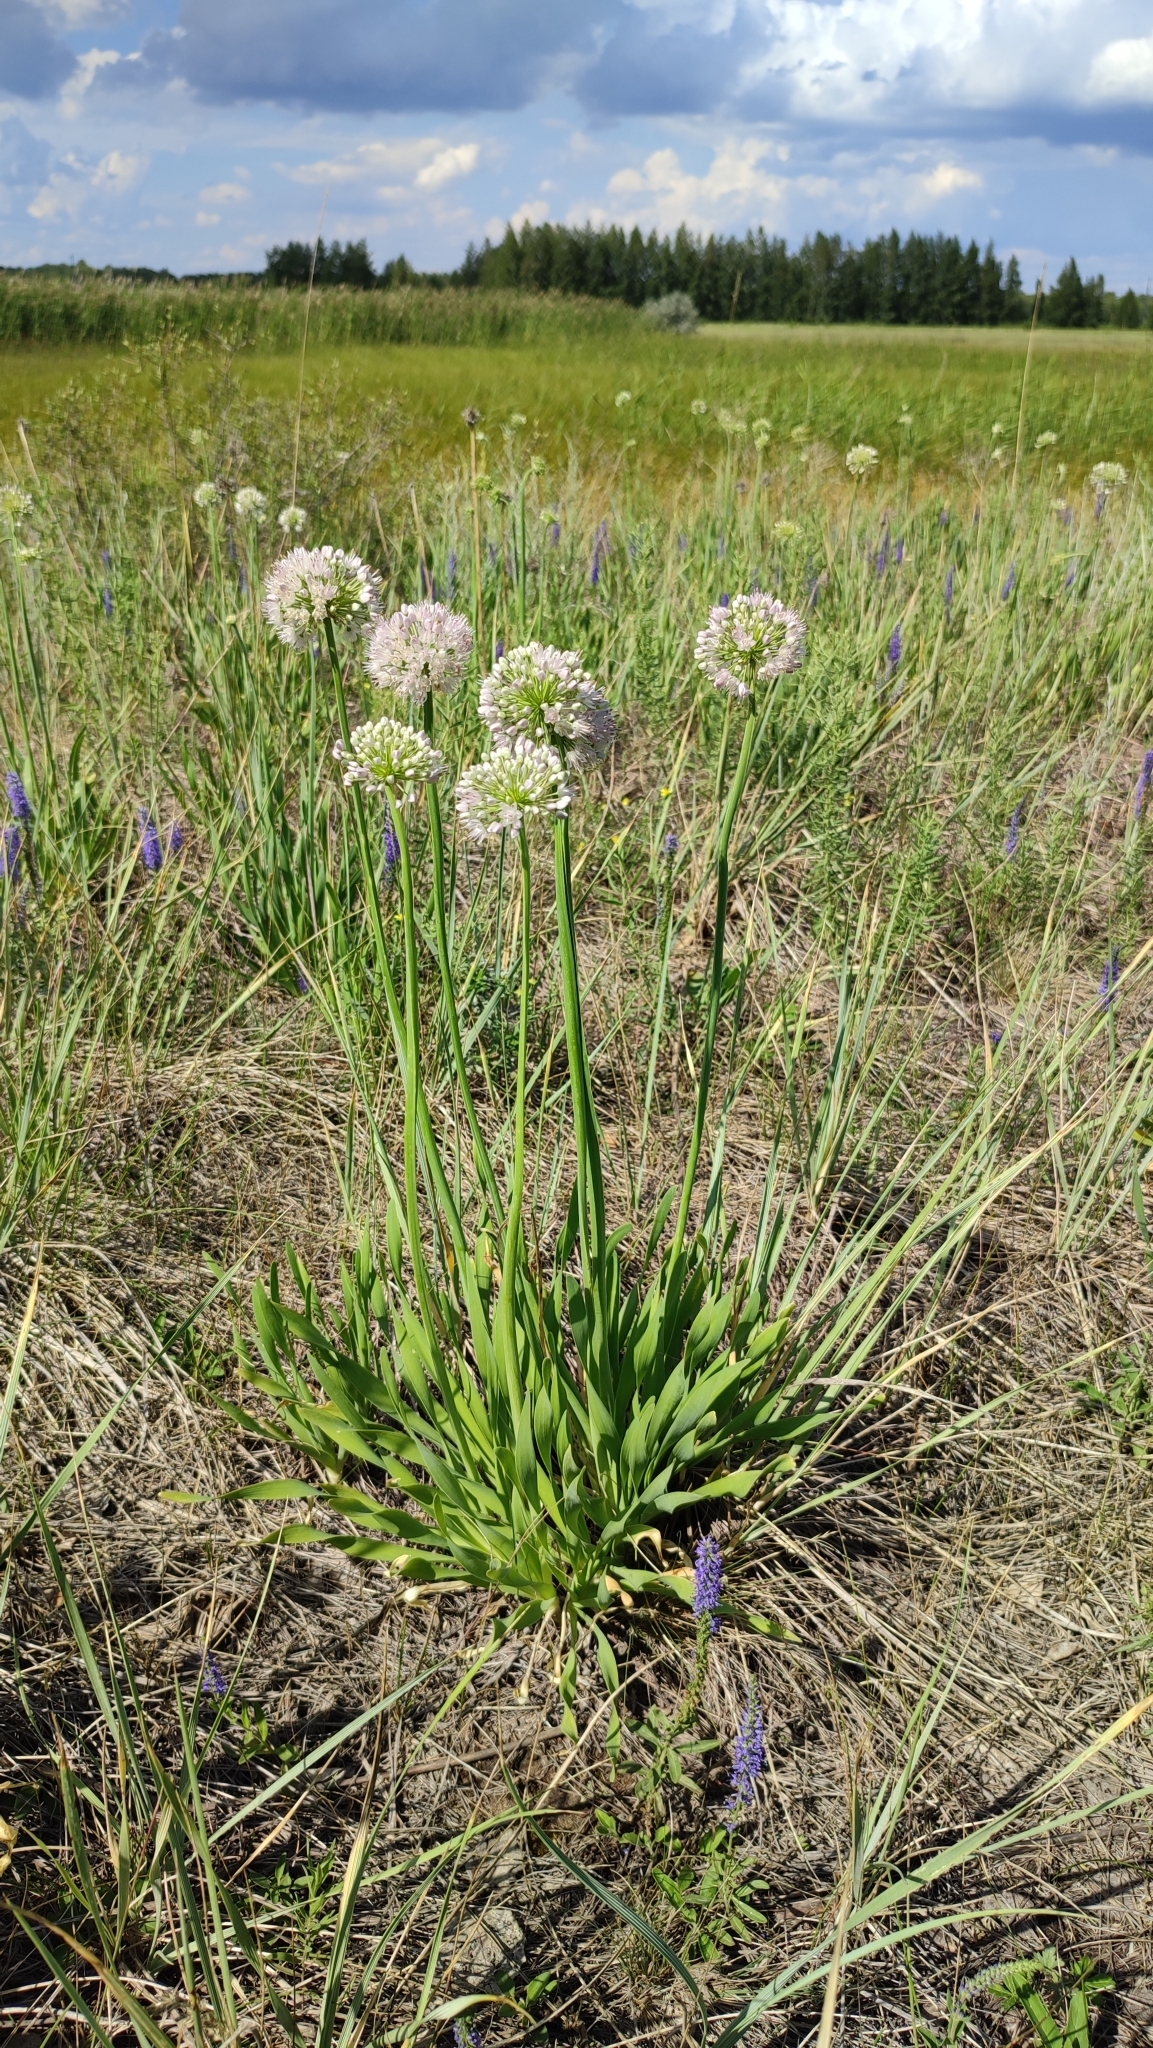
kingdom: Plantae
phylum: Tracheophyta
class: Liliopsida
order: Asparagales
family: Amaryllidaceae
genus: Allium
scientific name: Allium nutans
